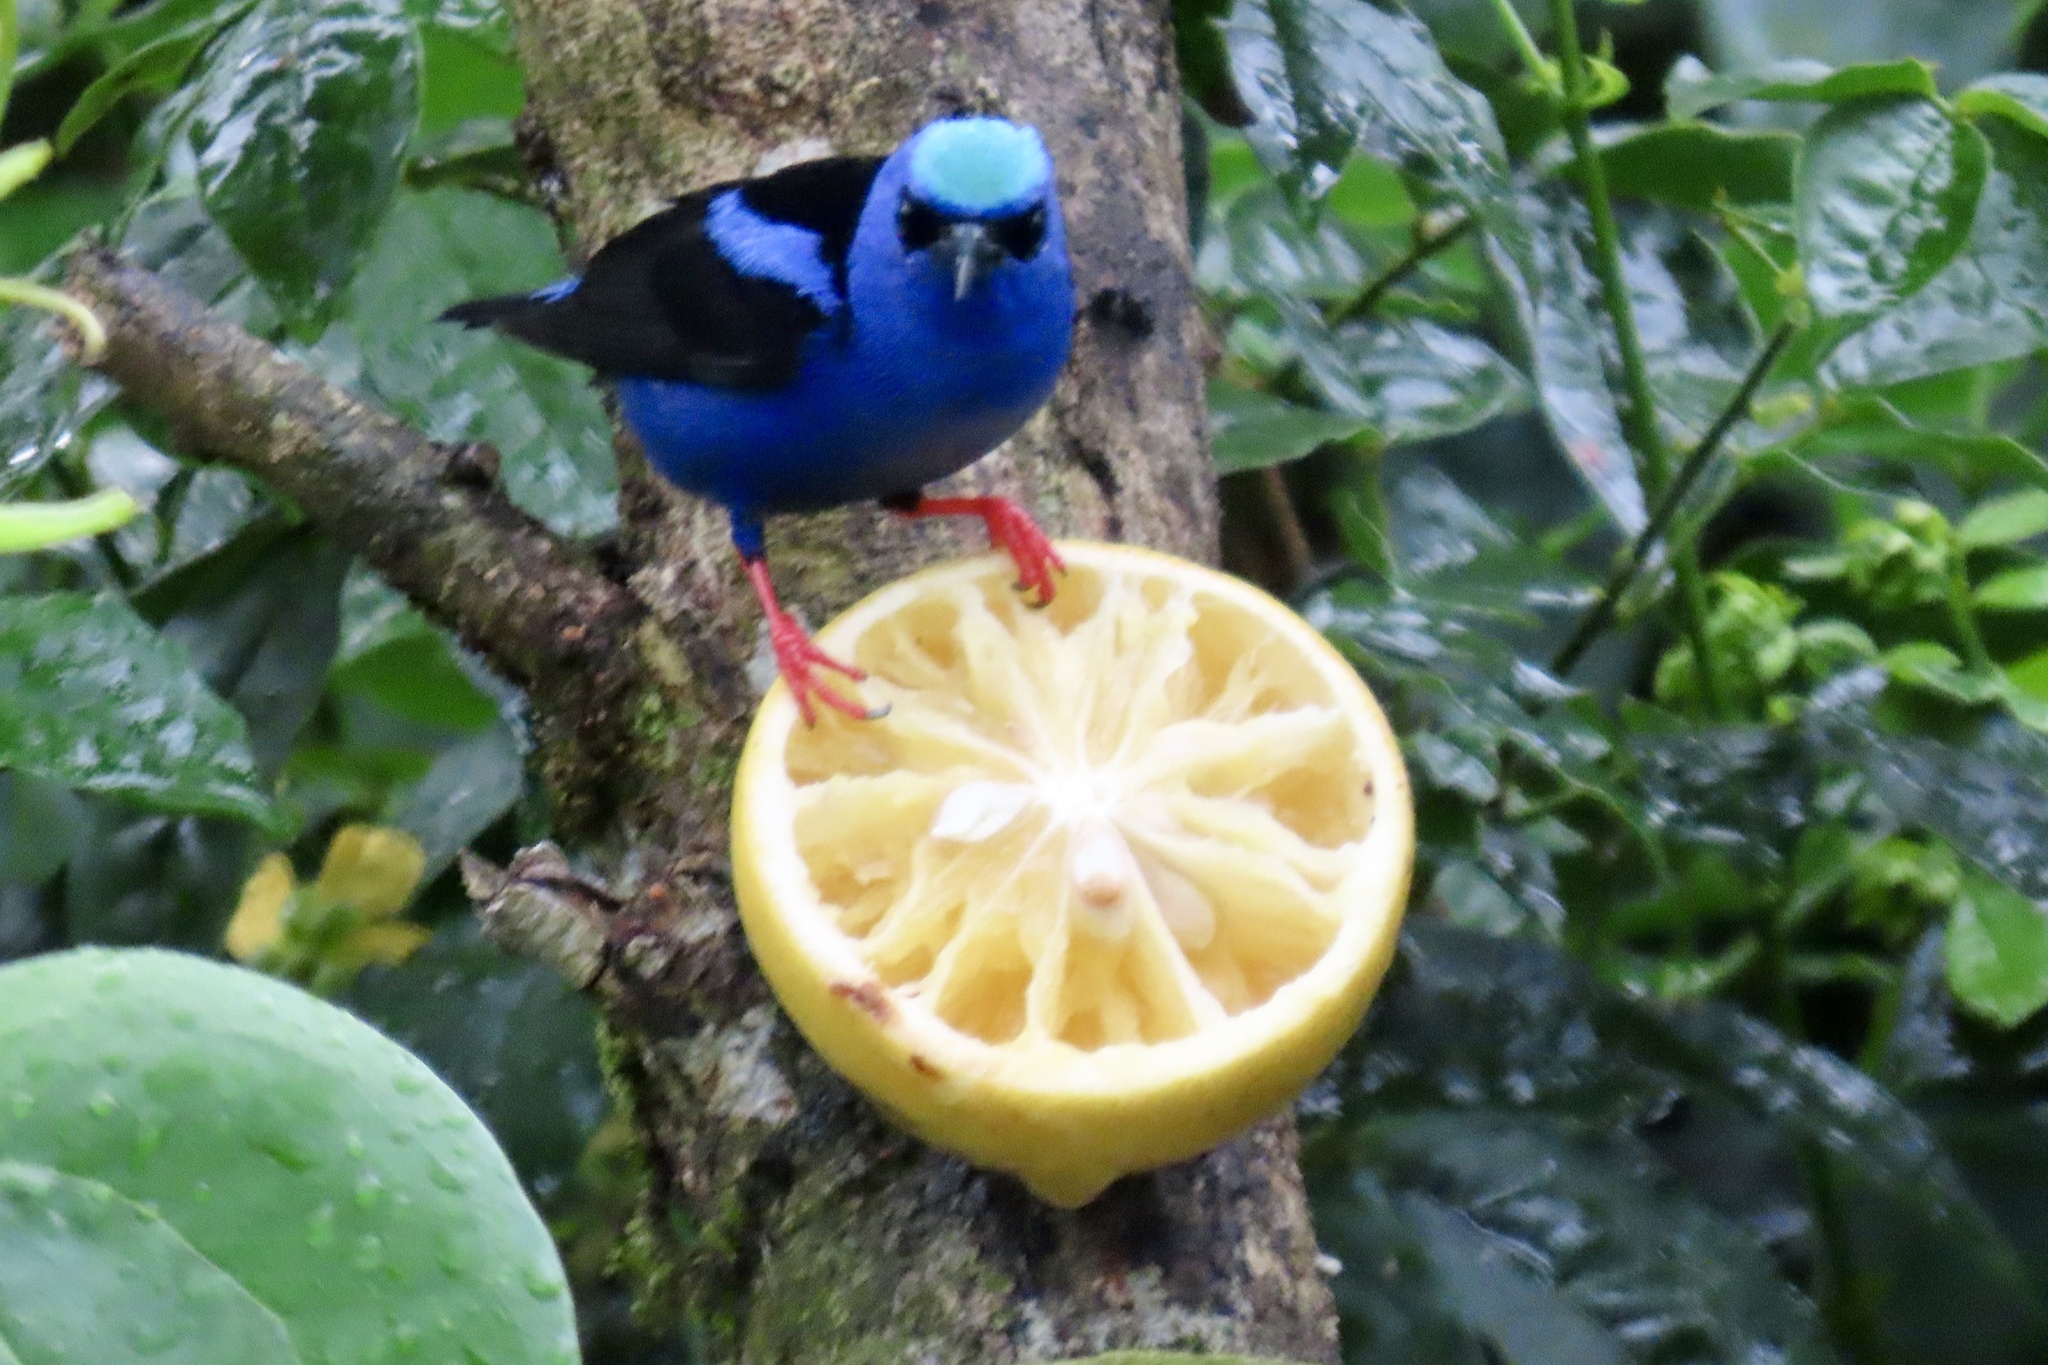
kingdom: Animalia
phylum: Chordata
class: Aves
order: Passeriformes
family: Thraupidae
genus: Cyanerpes
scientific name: Cyanerpes cyaneus
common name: Red-legged honeycreeper
